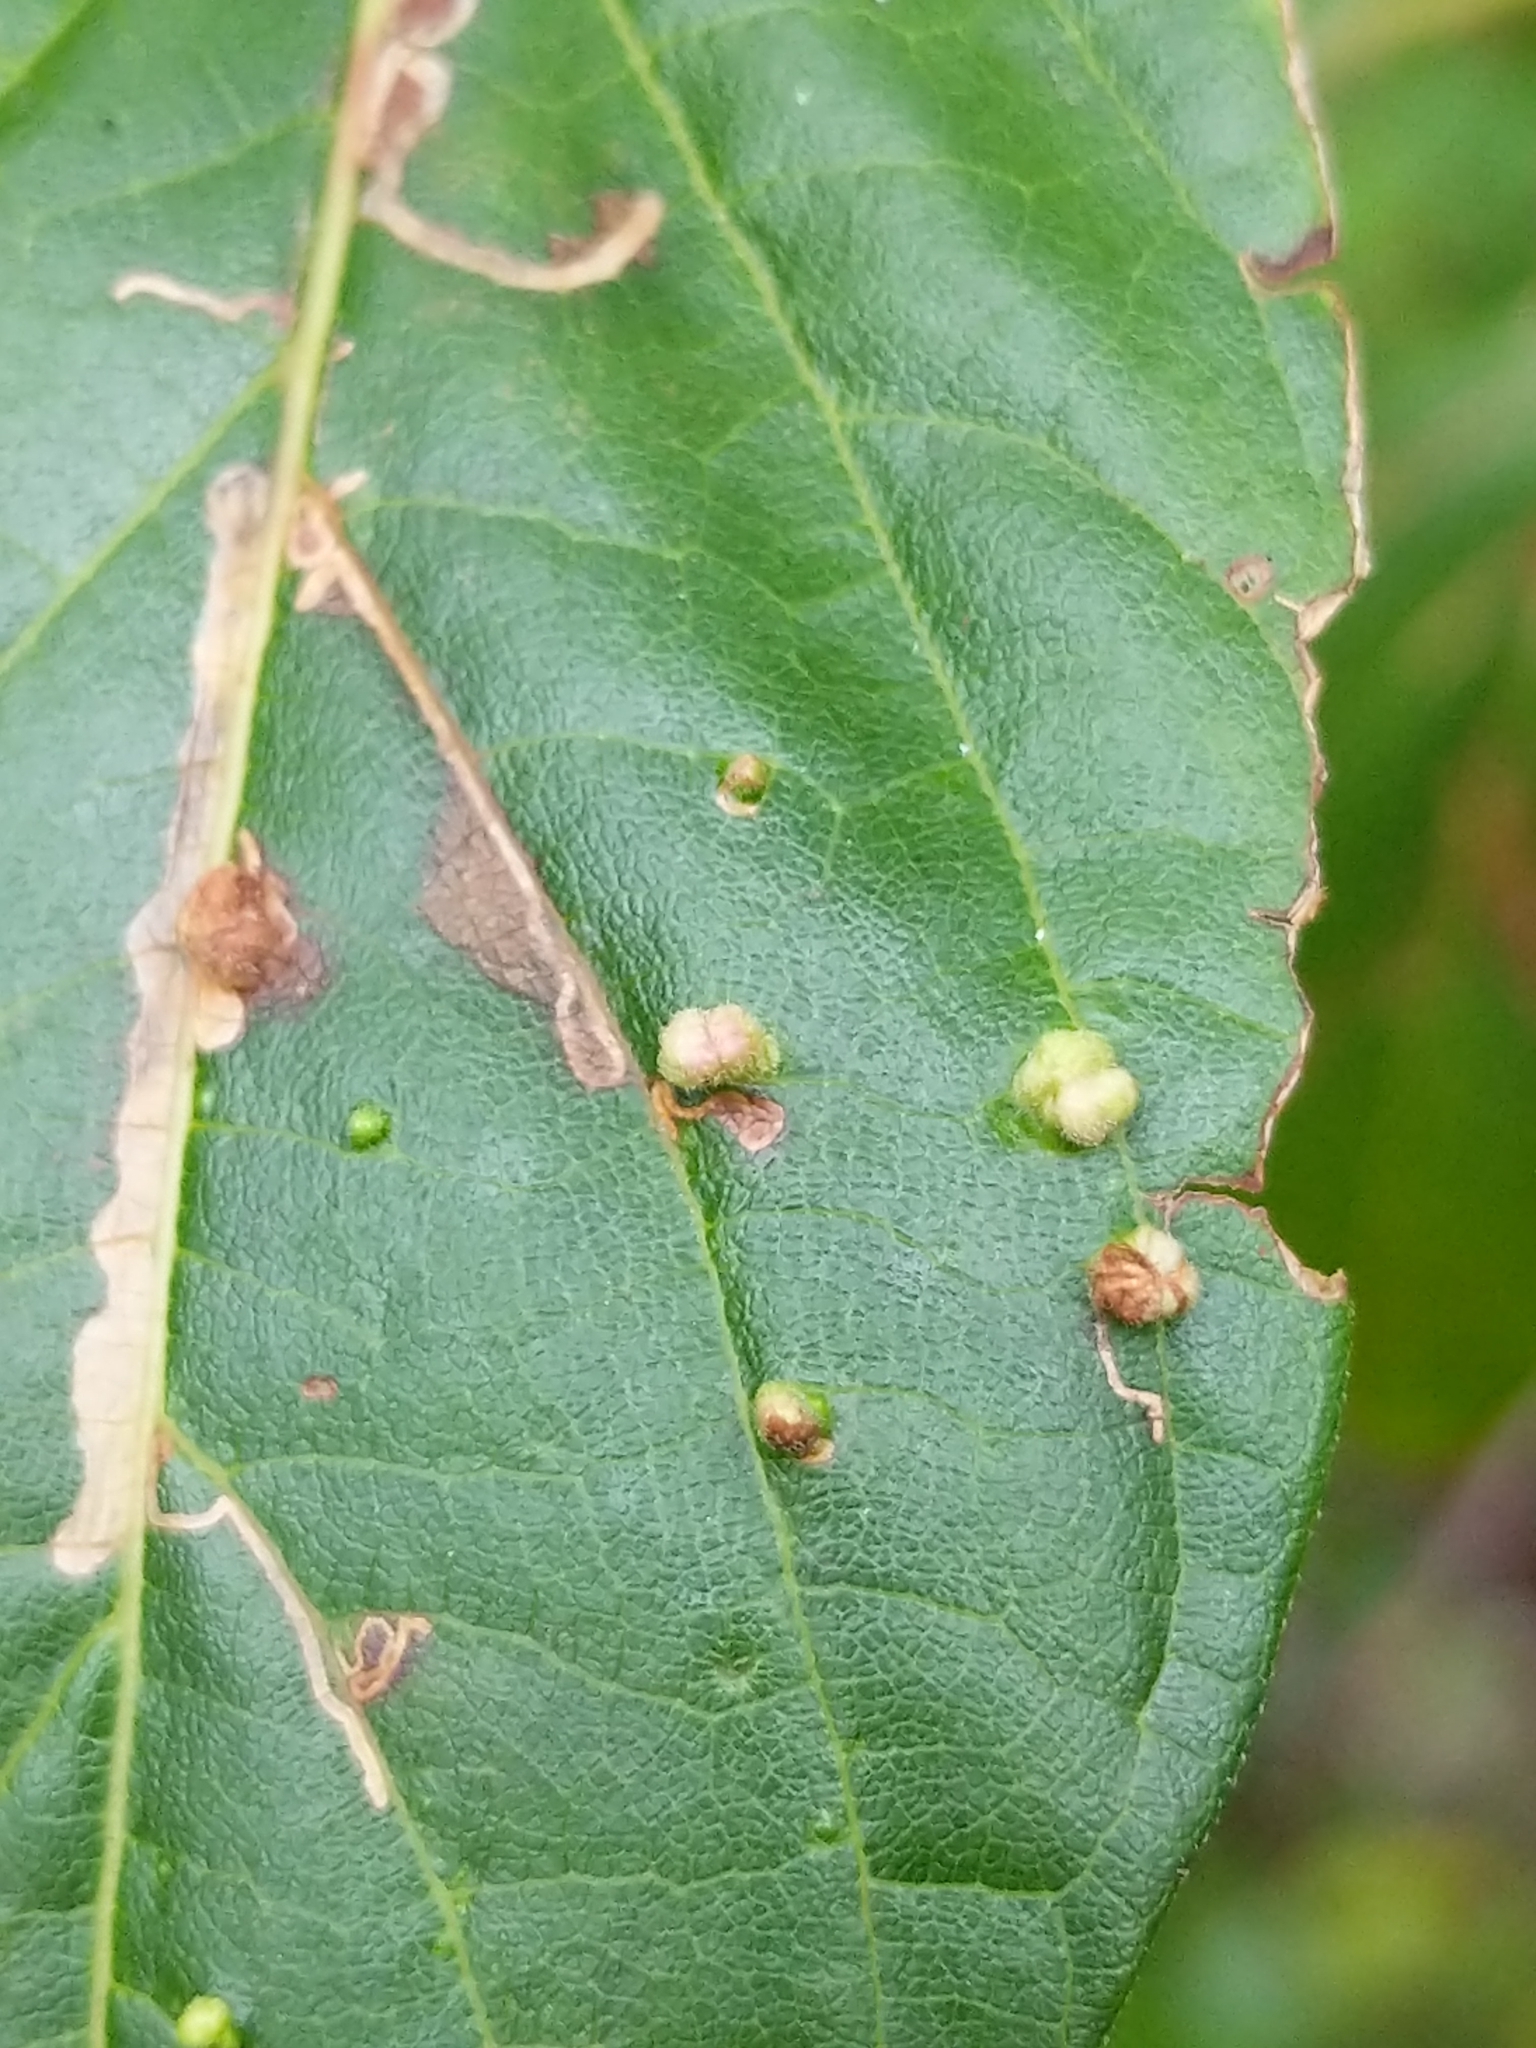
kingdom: Animalia
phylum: Arthropoda
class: Arachnida
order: Trombidiformes
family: Eriophyidae
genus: Aceria
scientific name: Aceria
